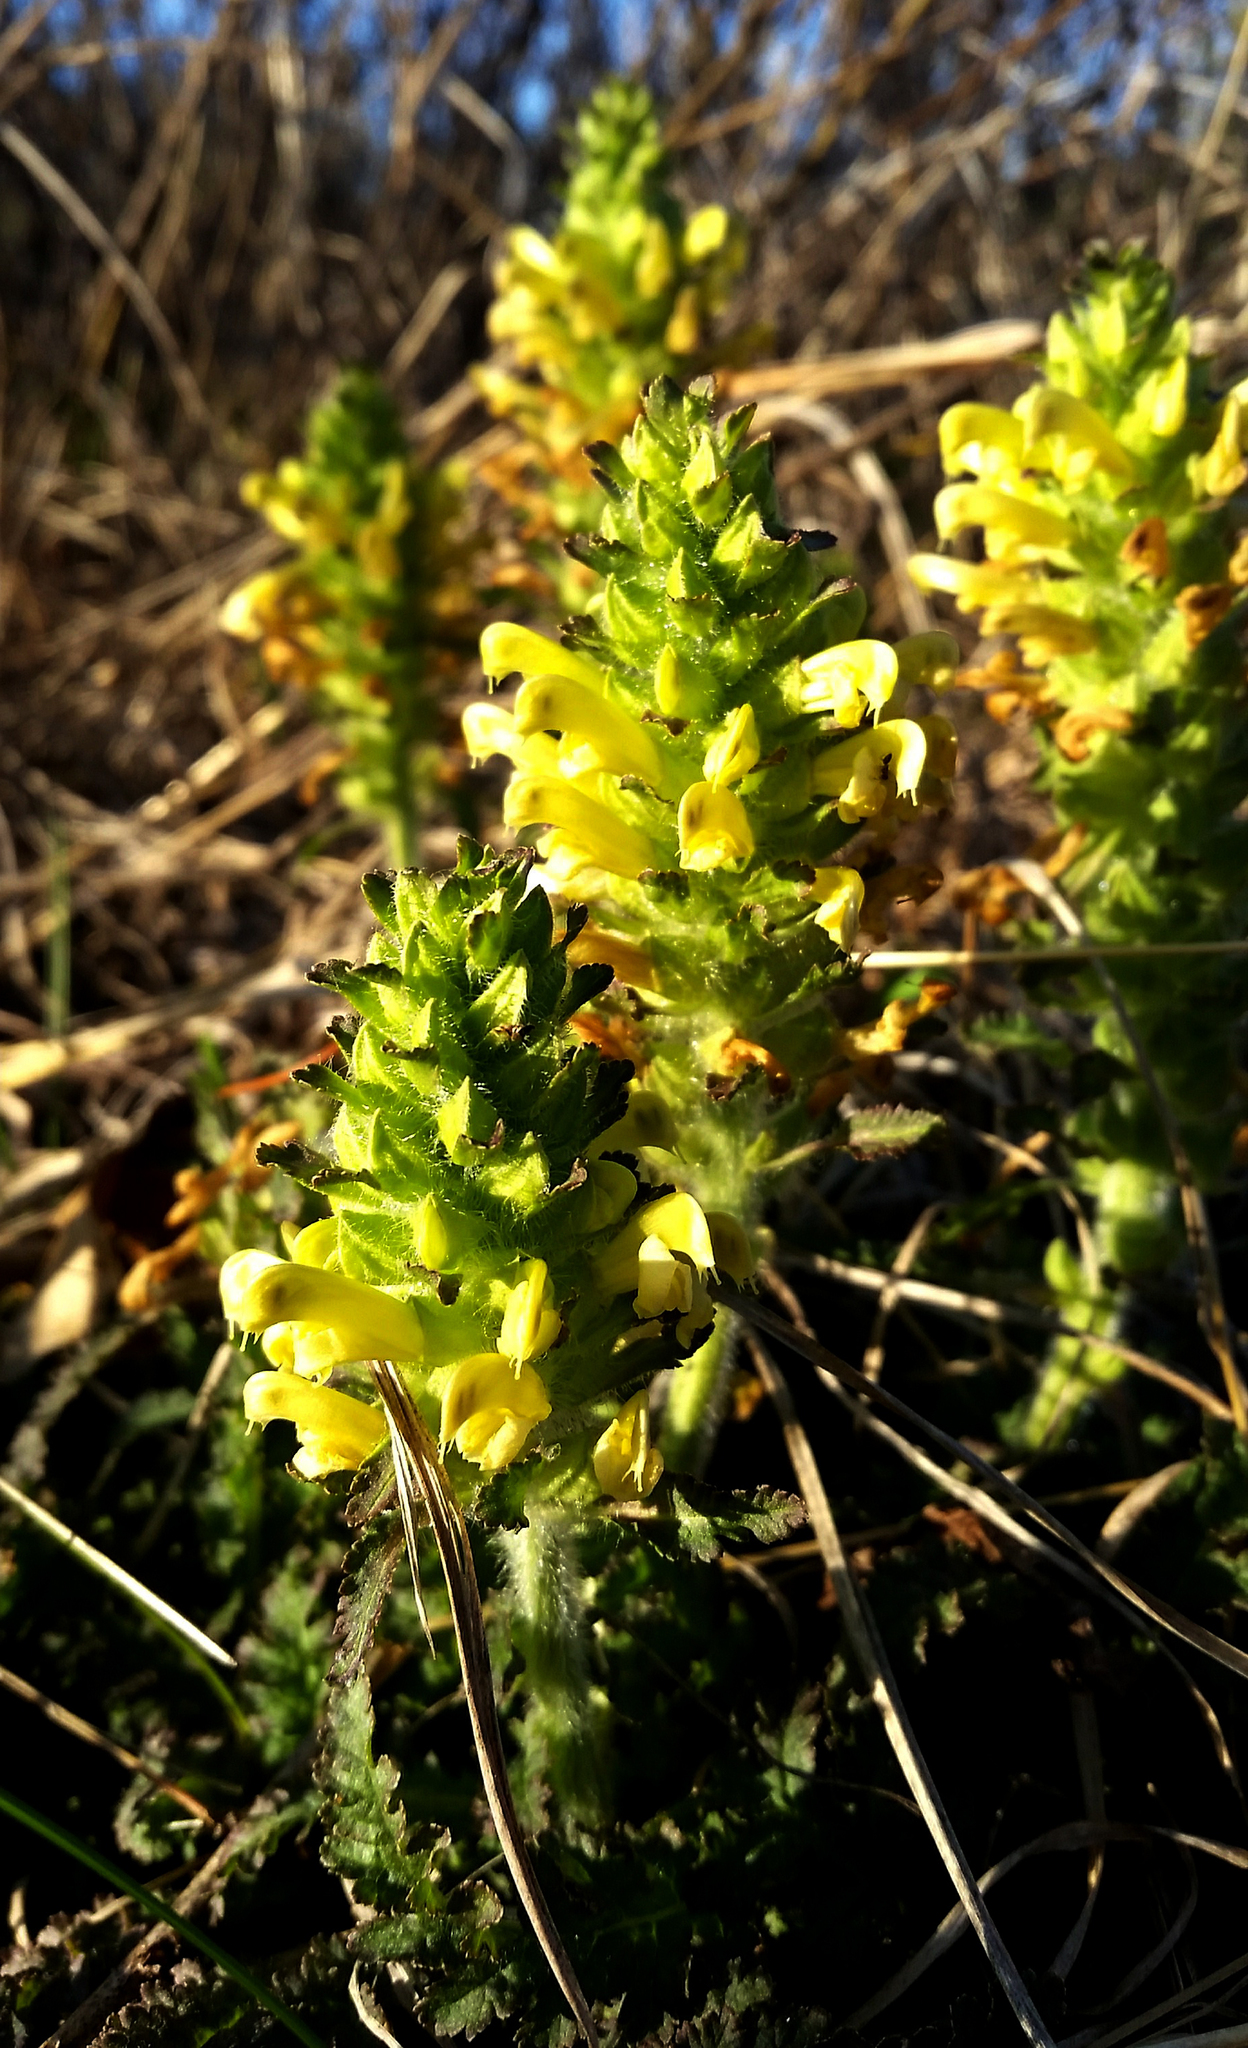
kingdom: Plantae
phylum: Tracheophyta
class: Magnoliopsida
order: Lamiales
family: Orobanchaceae
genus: Pedicularis
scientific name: Pedicularis canadensis
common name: Early lousewort
